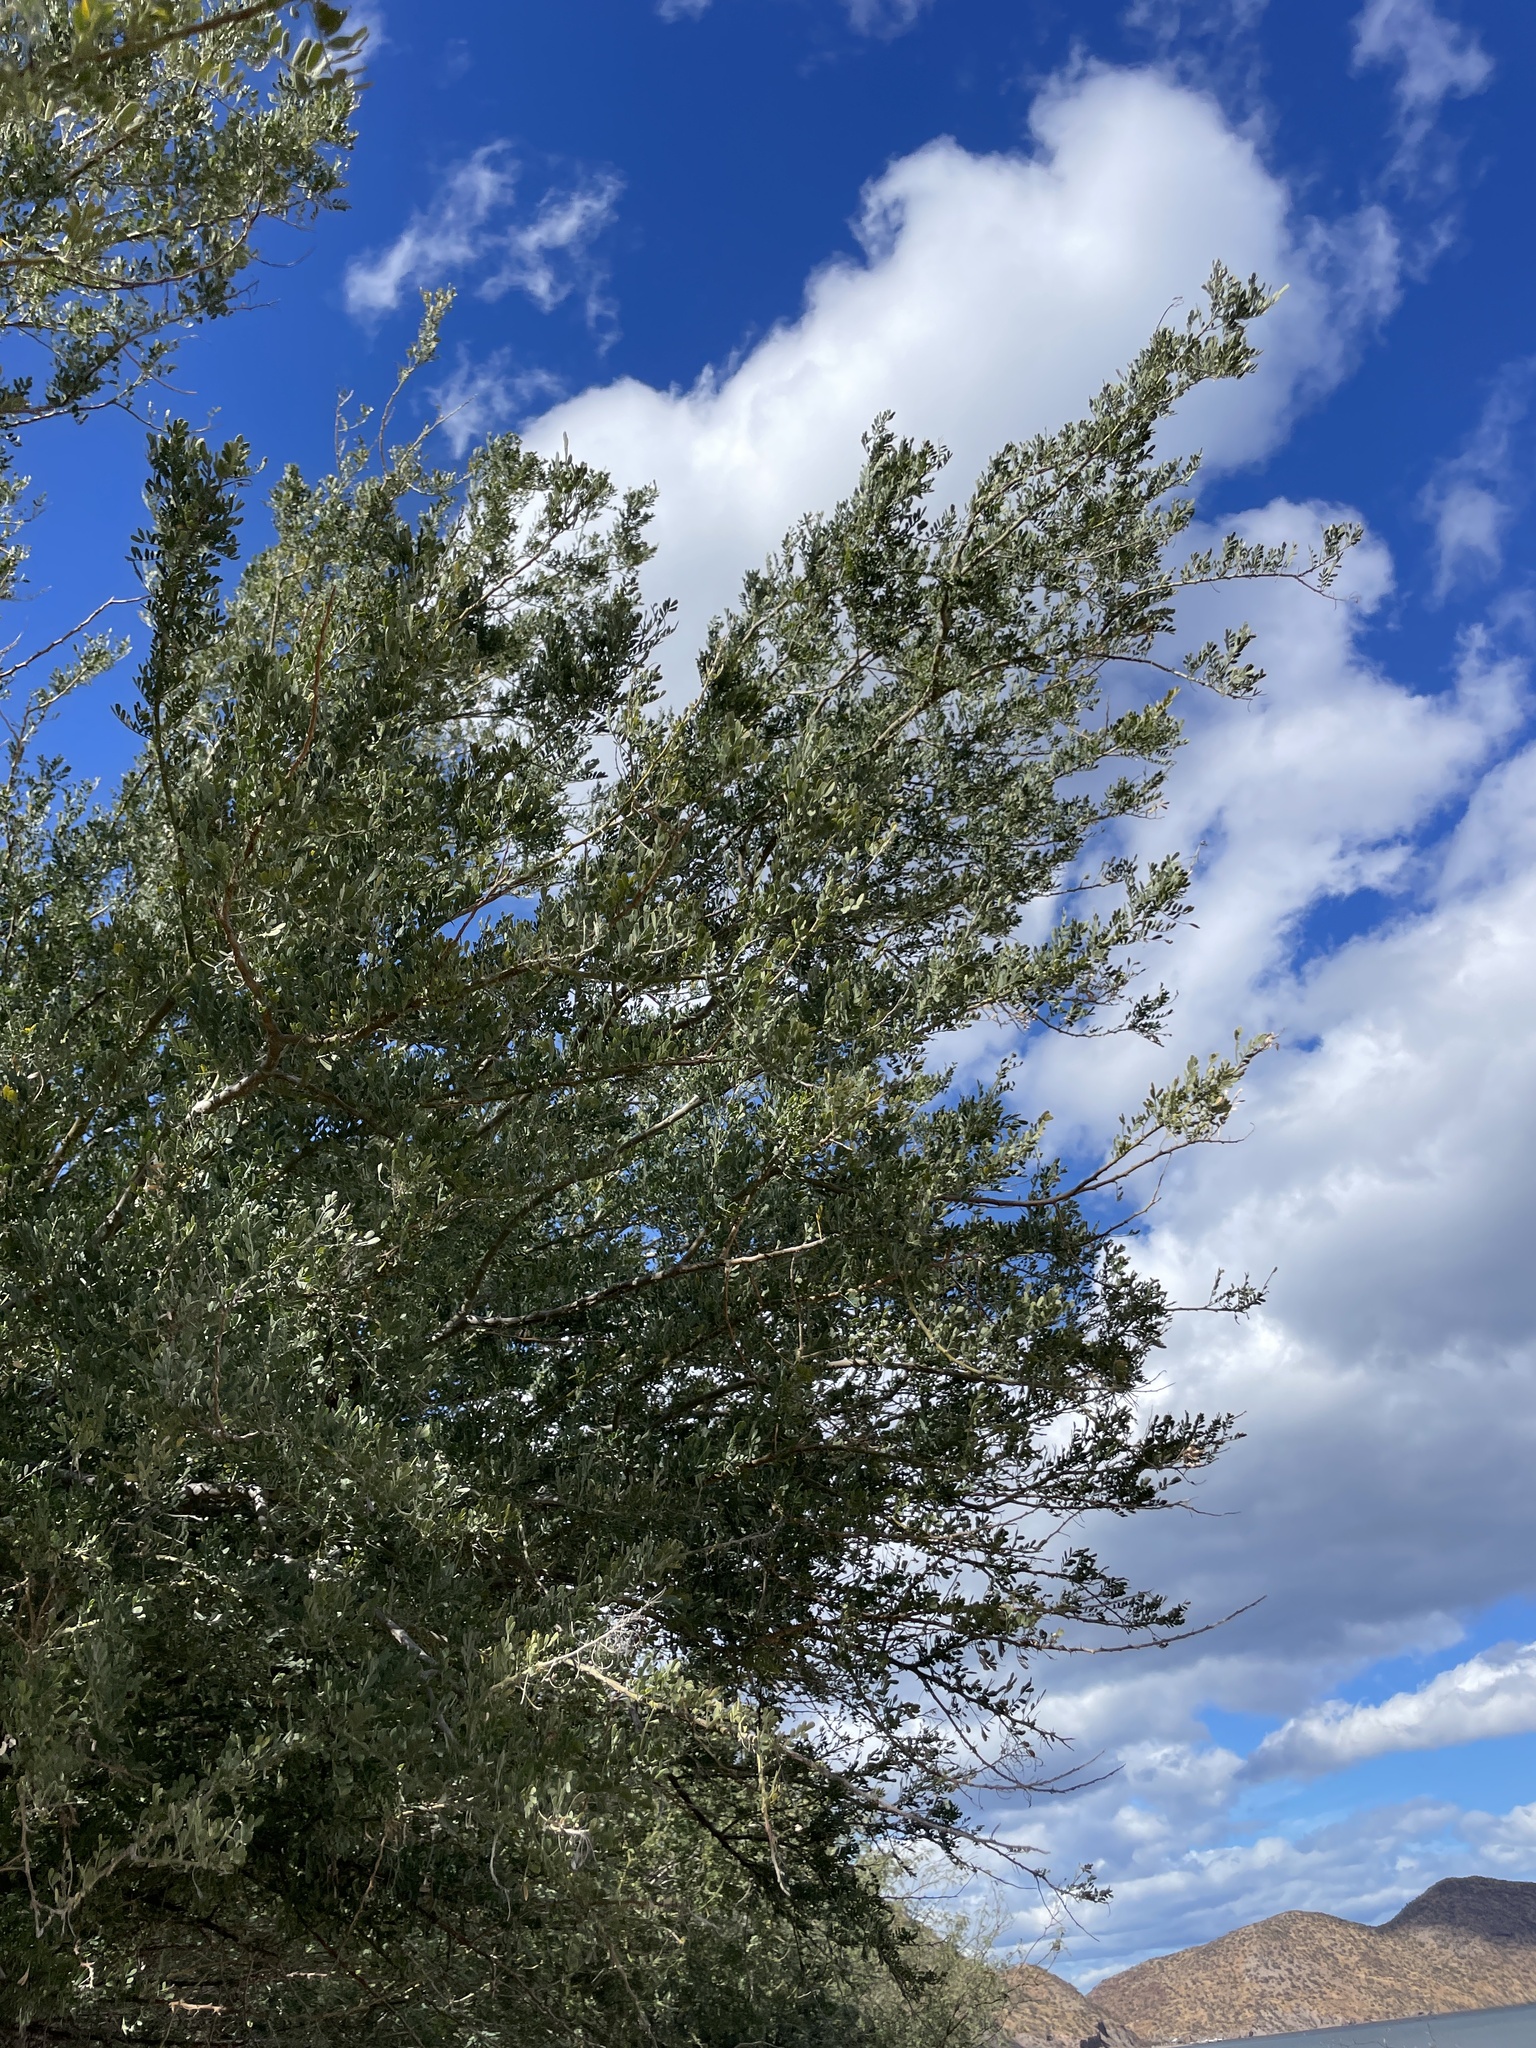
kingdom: Plantae
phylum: Tracheophyta
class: Magnoliopsida
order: Fabales
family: Fabaceae
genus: Olneya
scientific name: Olneya tesota
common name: Desert ironwood
